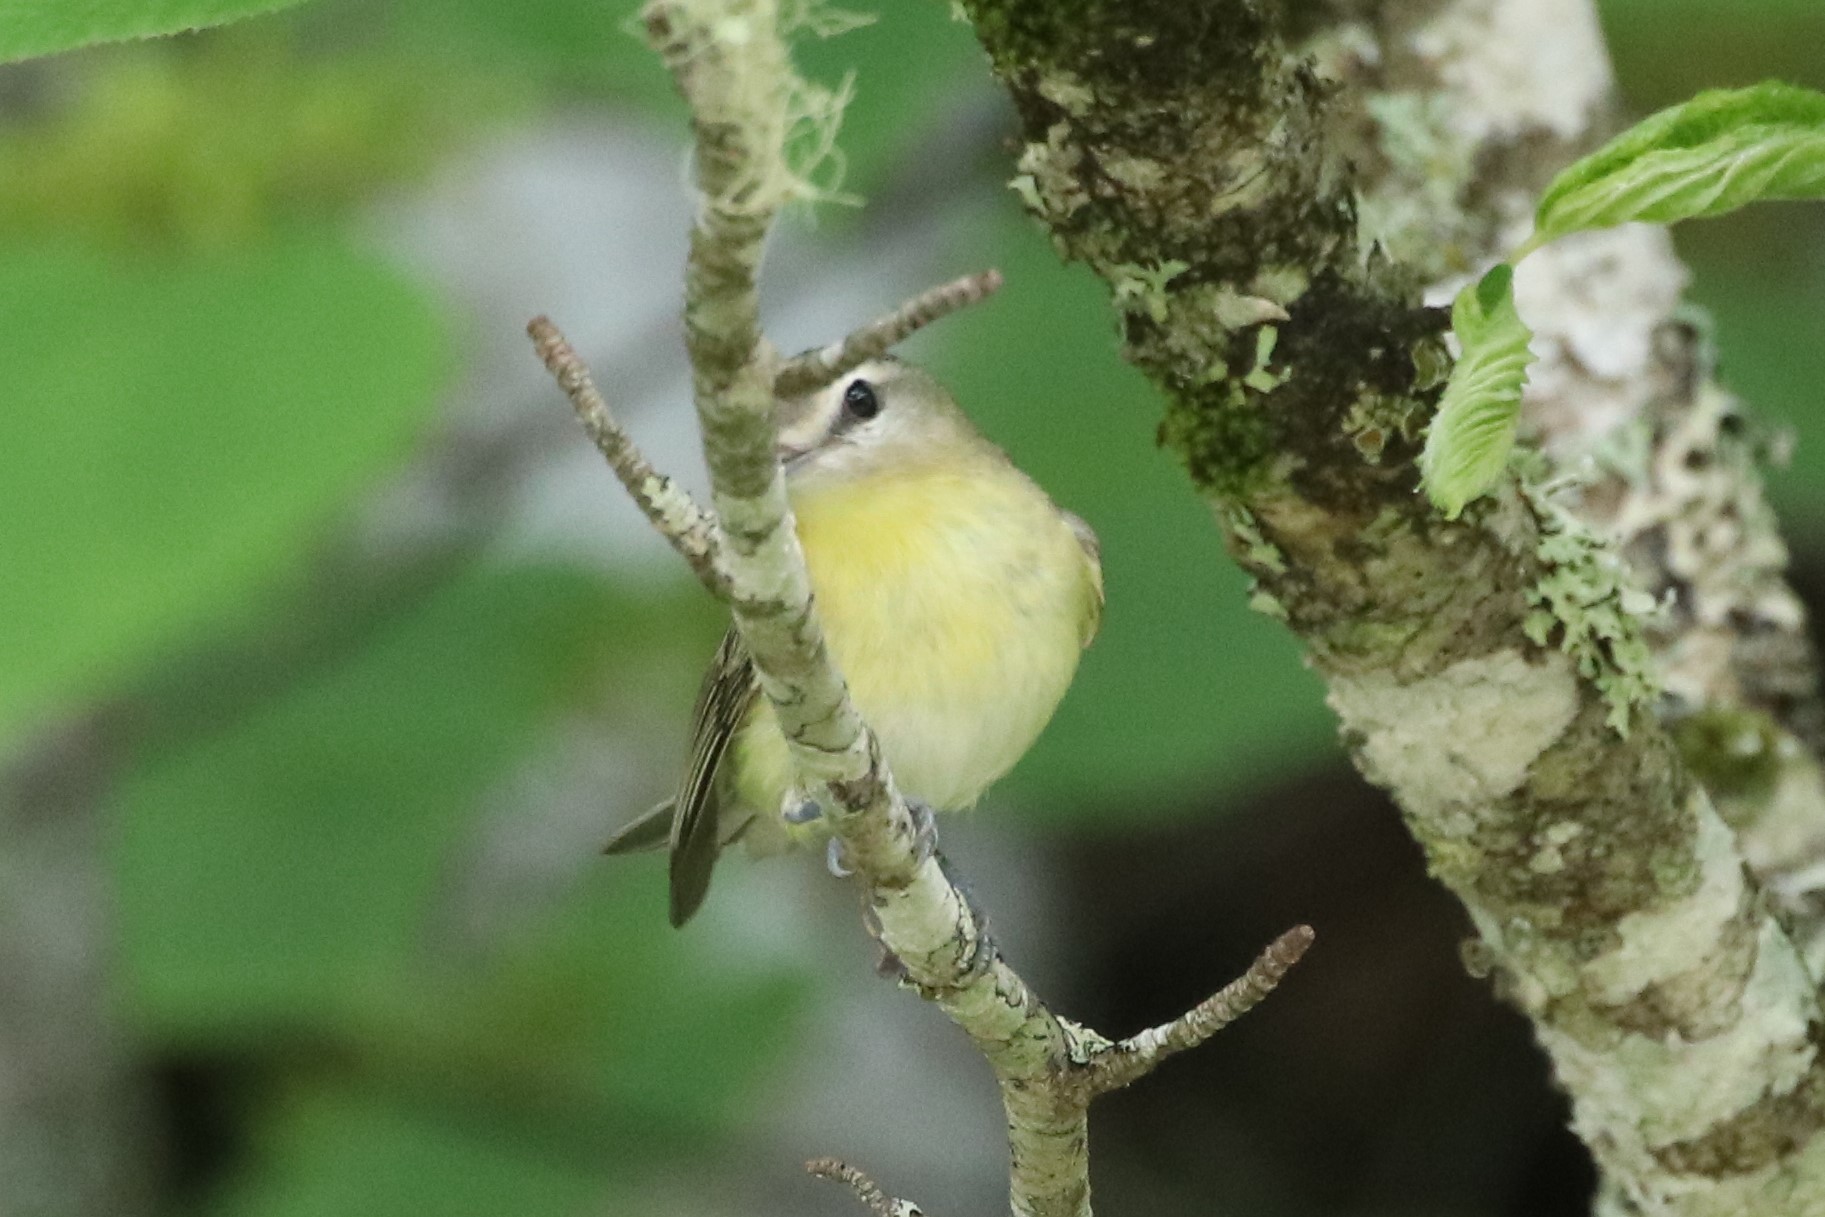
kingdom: Animalia
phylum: Chordata
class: Aves
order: Passeriformes
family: Vireonidae
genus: Vireo
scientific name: Vireo philadelphicus
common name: Philadelphia vireo
